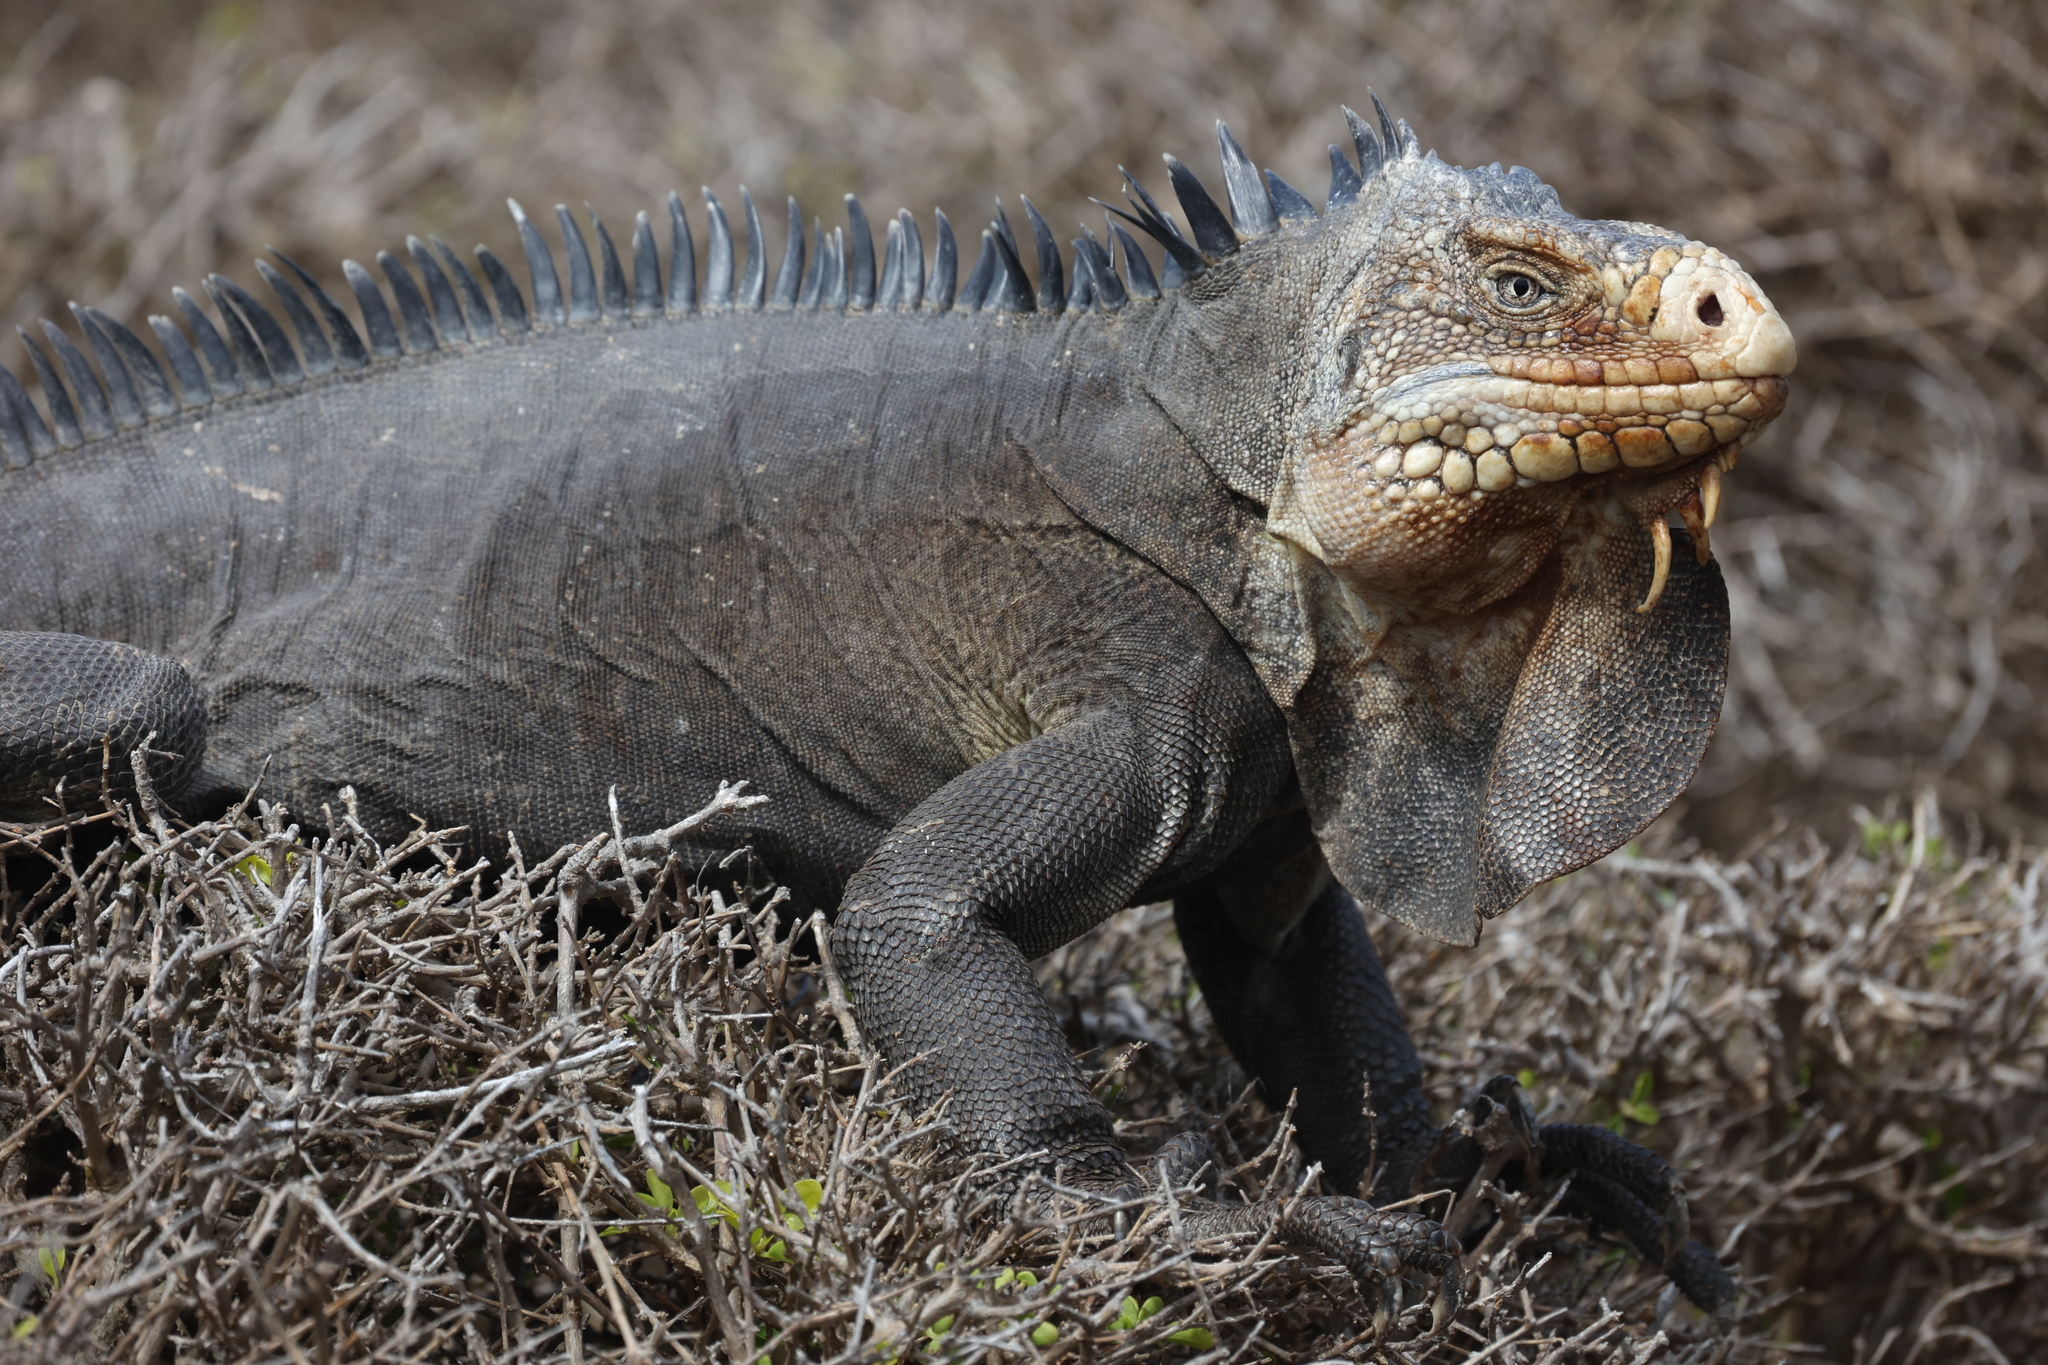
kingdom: Animalia
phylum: Chordata
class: Squamata
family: Iguanidae
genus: Iguana
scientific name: Iguana delicatissima
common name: West indian iguana
